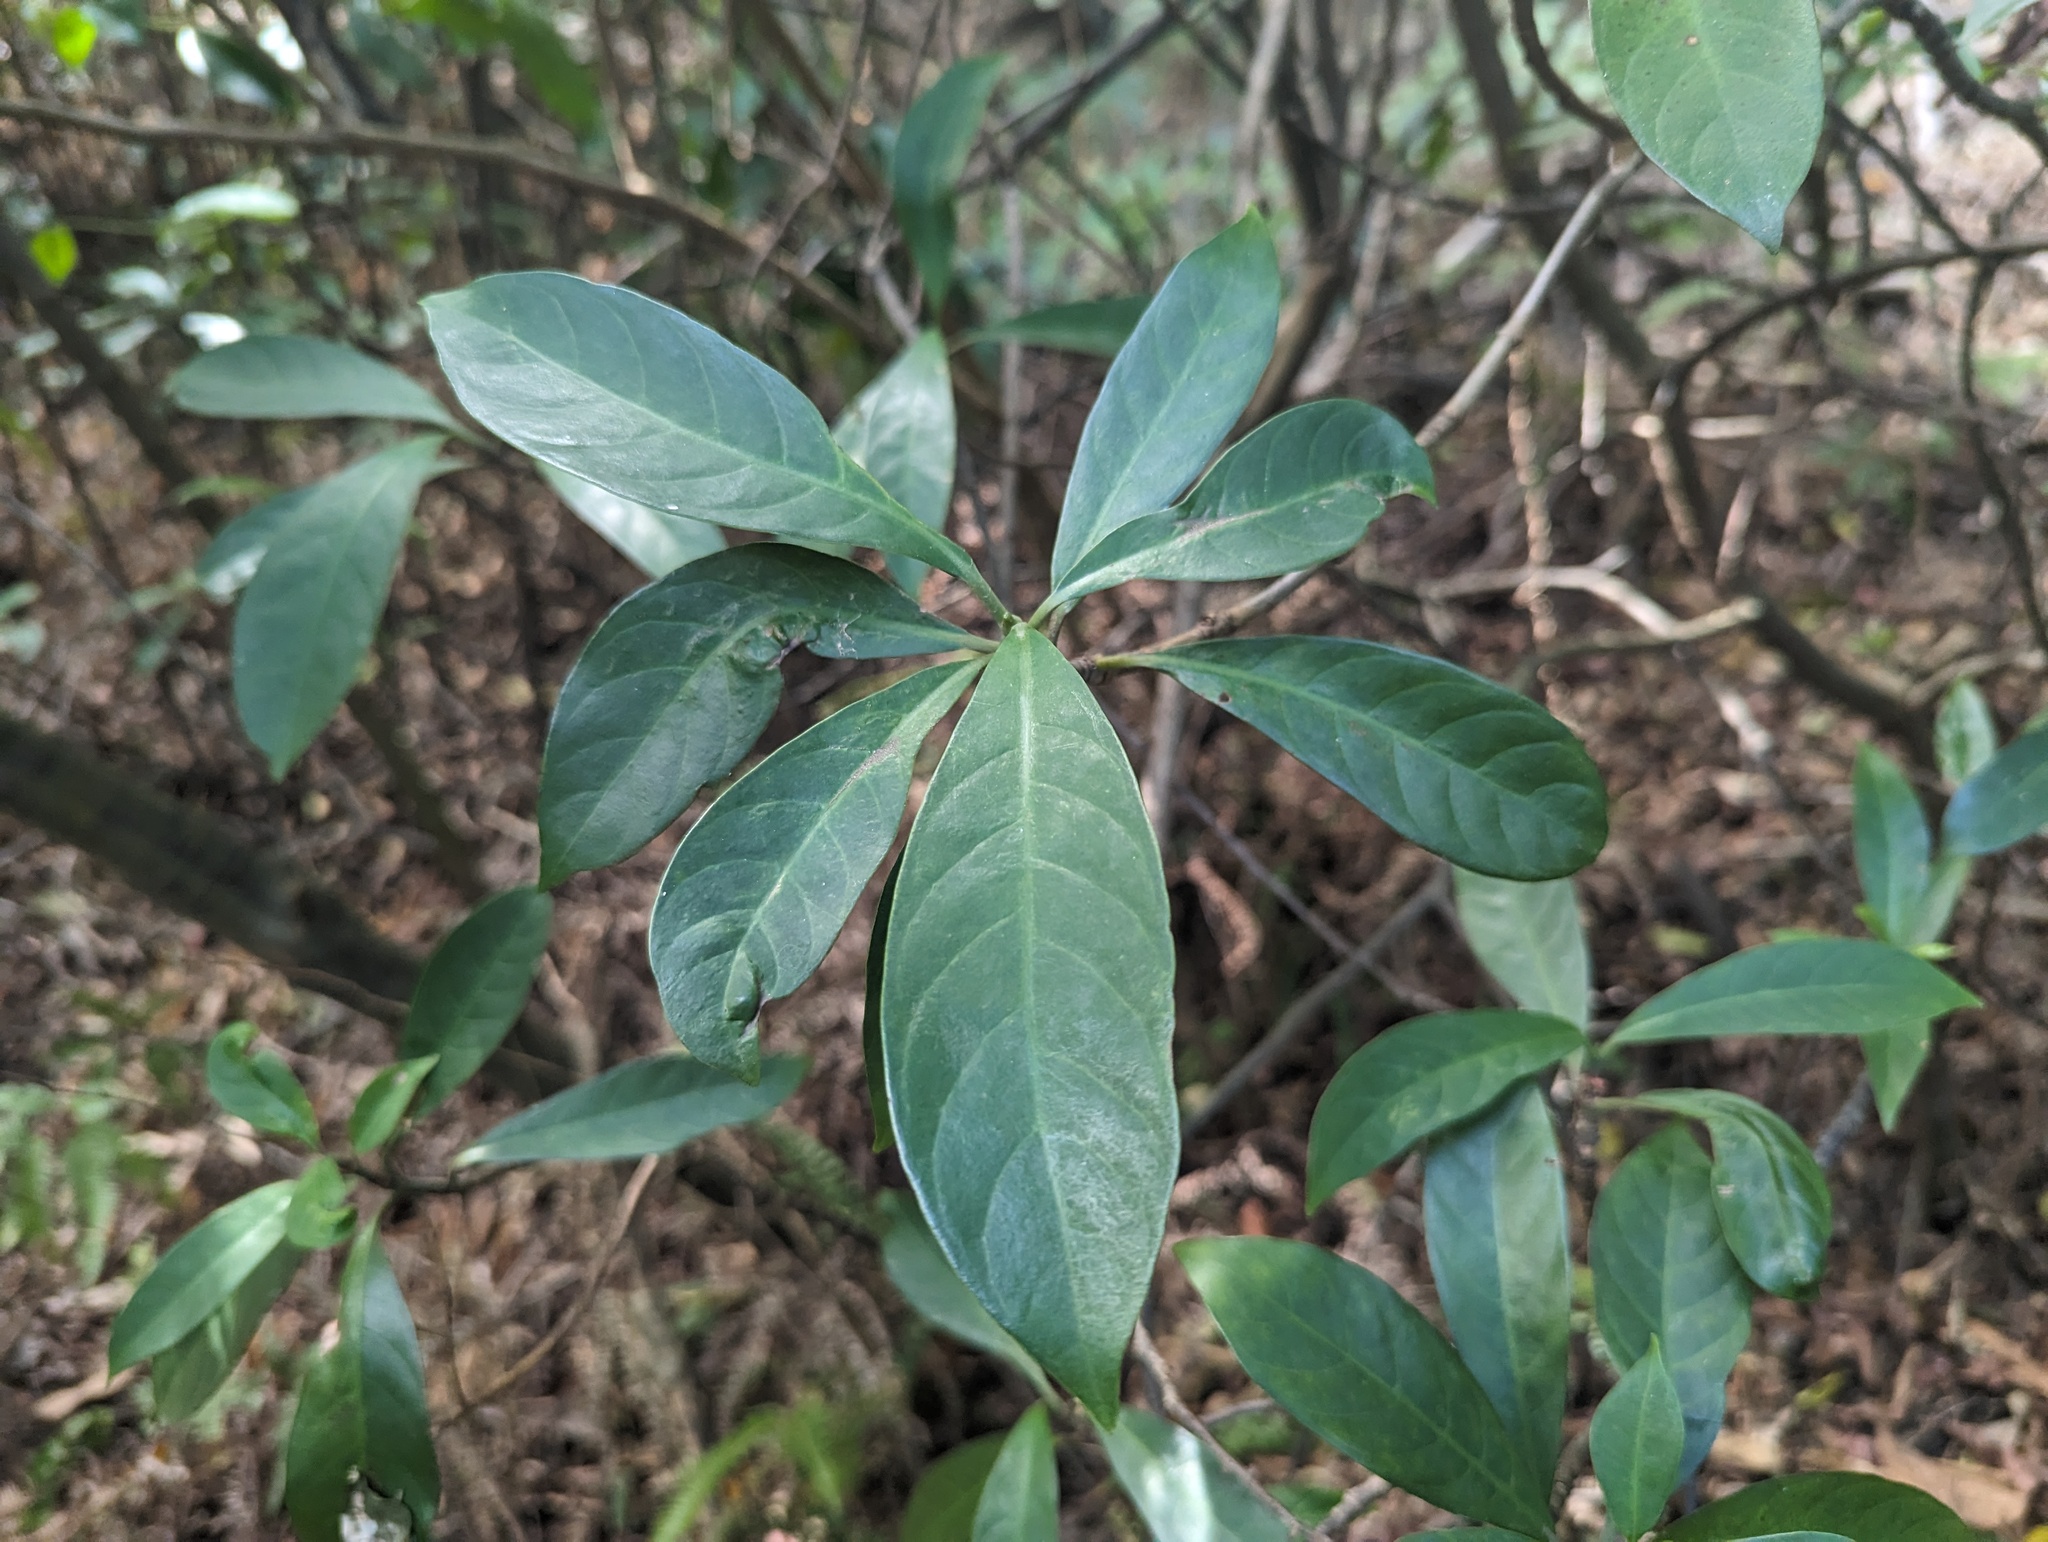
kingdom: Plantae
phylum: Tracheophyta
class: Magnoliopsida
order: Gentianales
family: Rubiaceae
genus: Psychotria
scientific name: Psychotria asiatica
